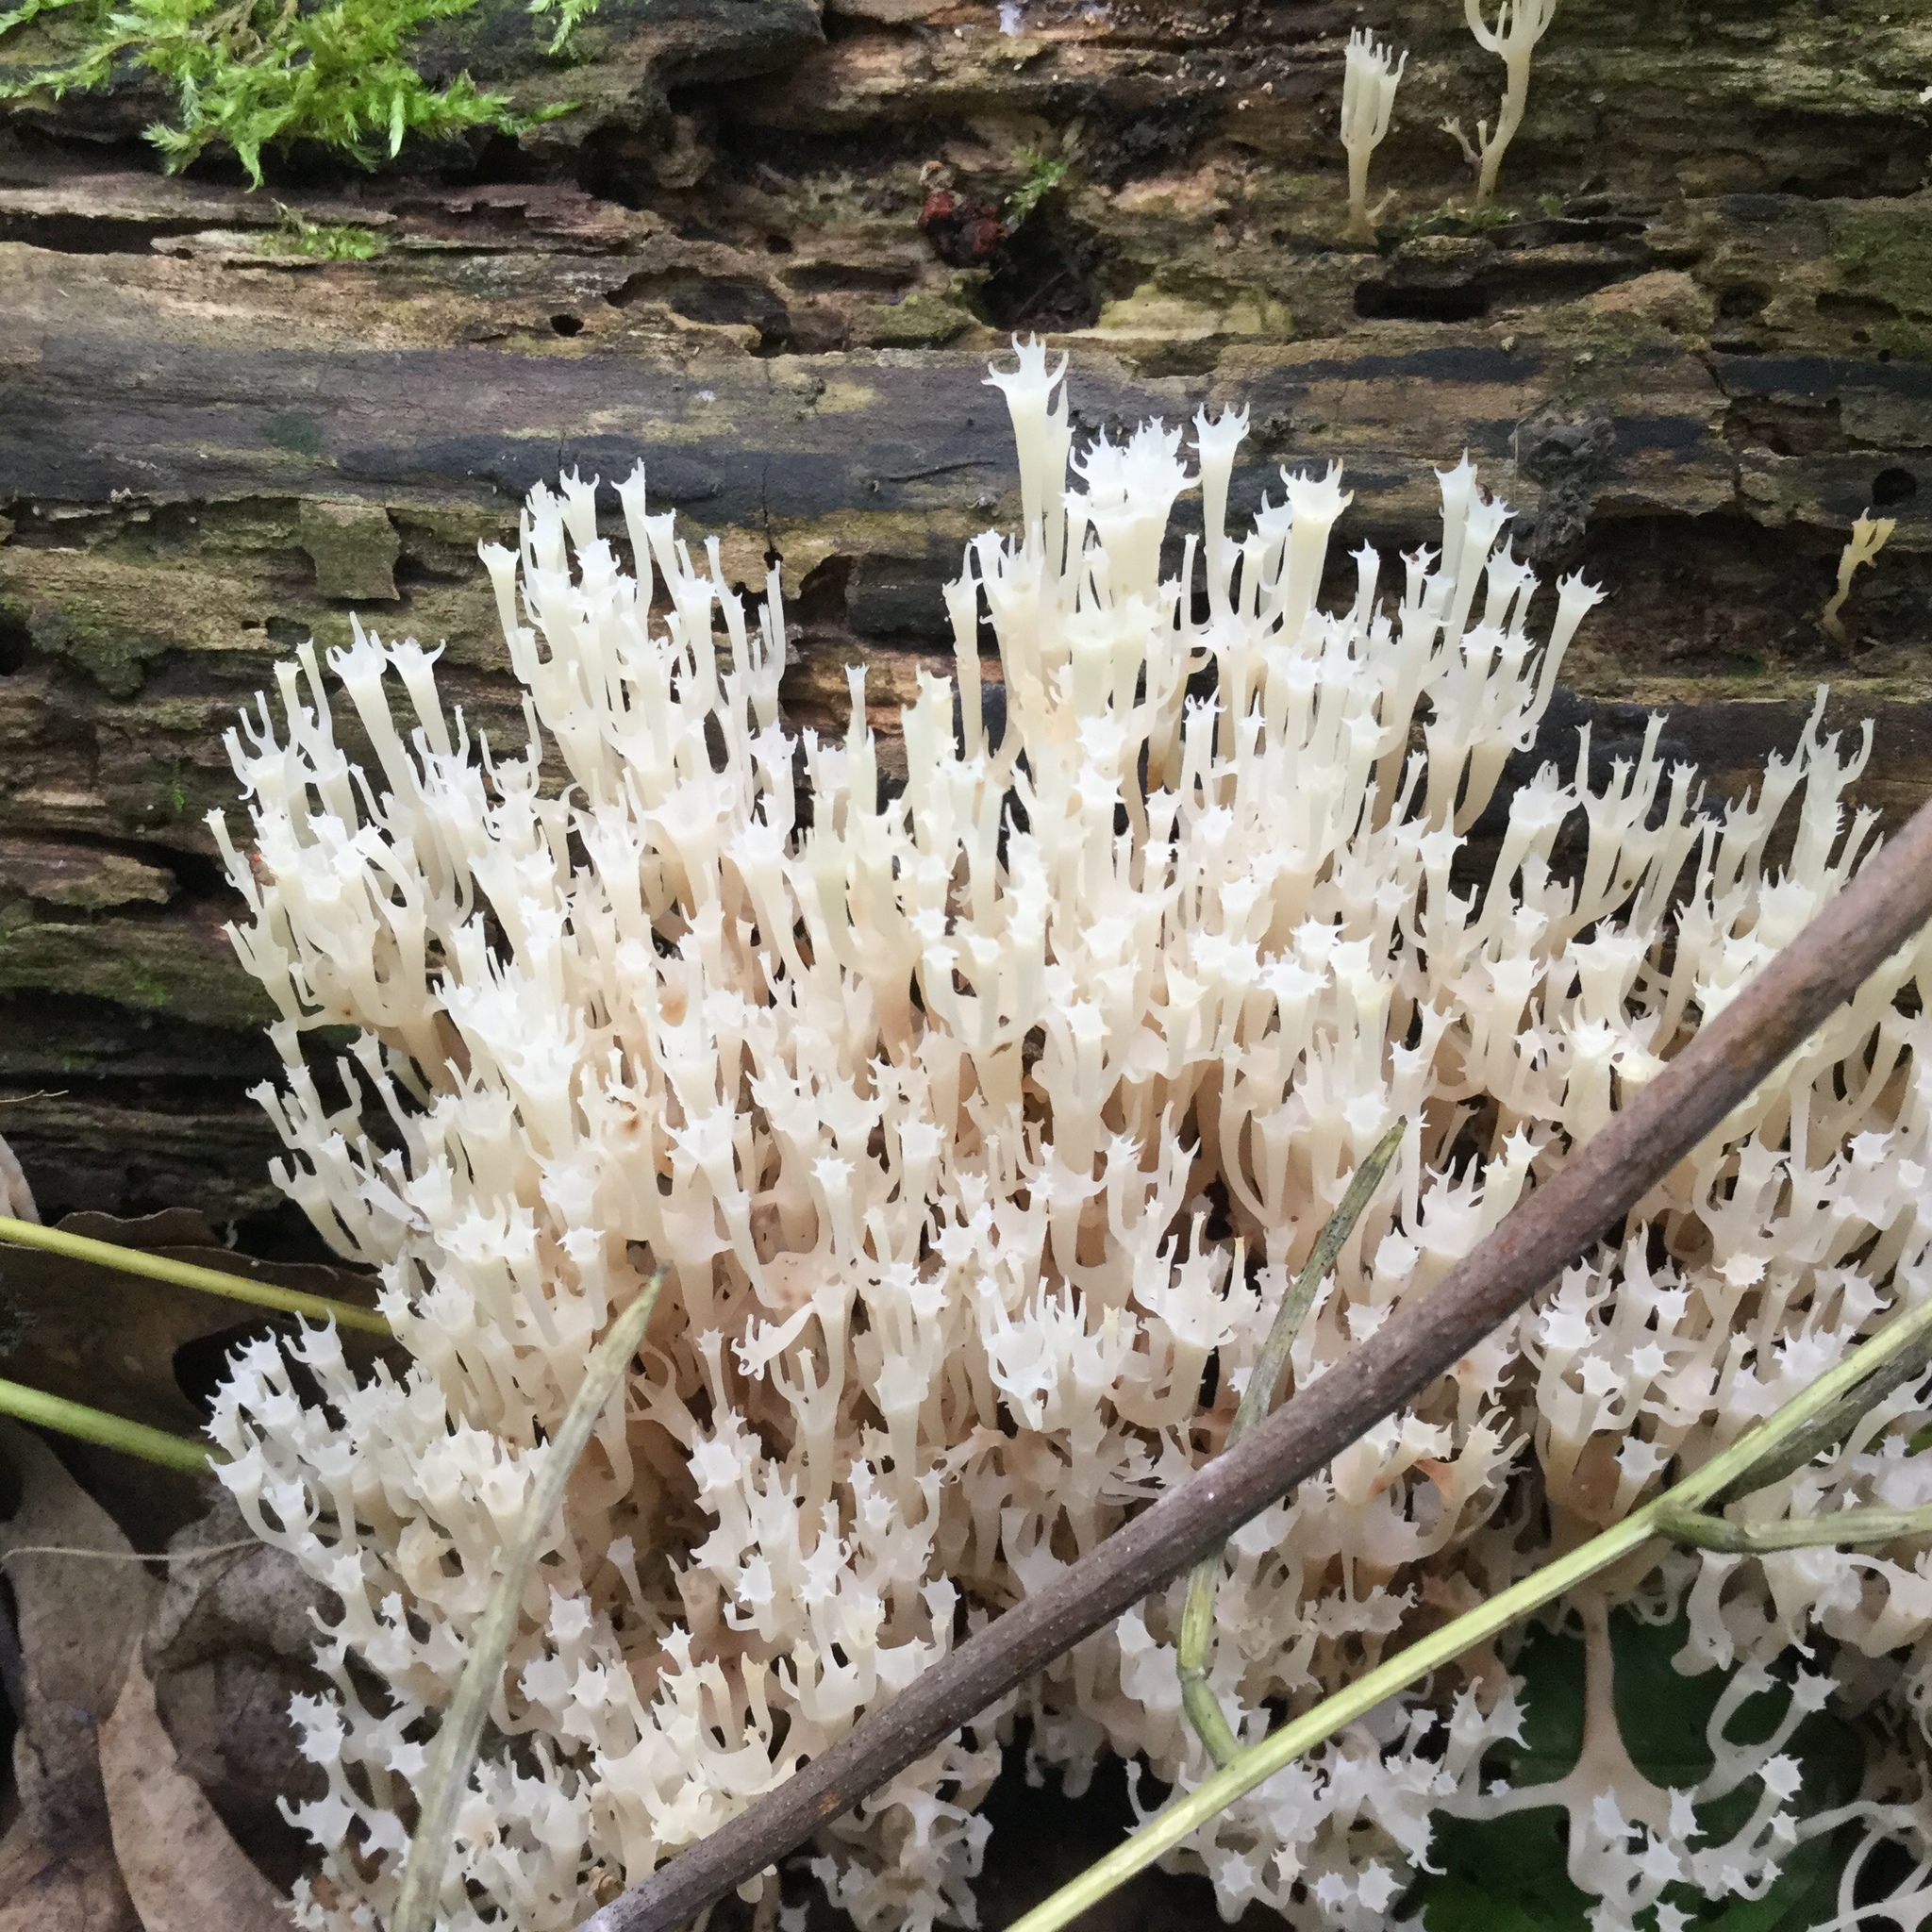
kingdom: Fungi
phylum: Basidiomycota
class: Agaricomycetes
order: Russulales
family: Auriscalpiaceae
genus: Artomyces
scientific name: Artomyces pyxidatus
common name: Crown-tipped coral fungus
